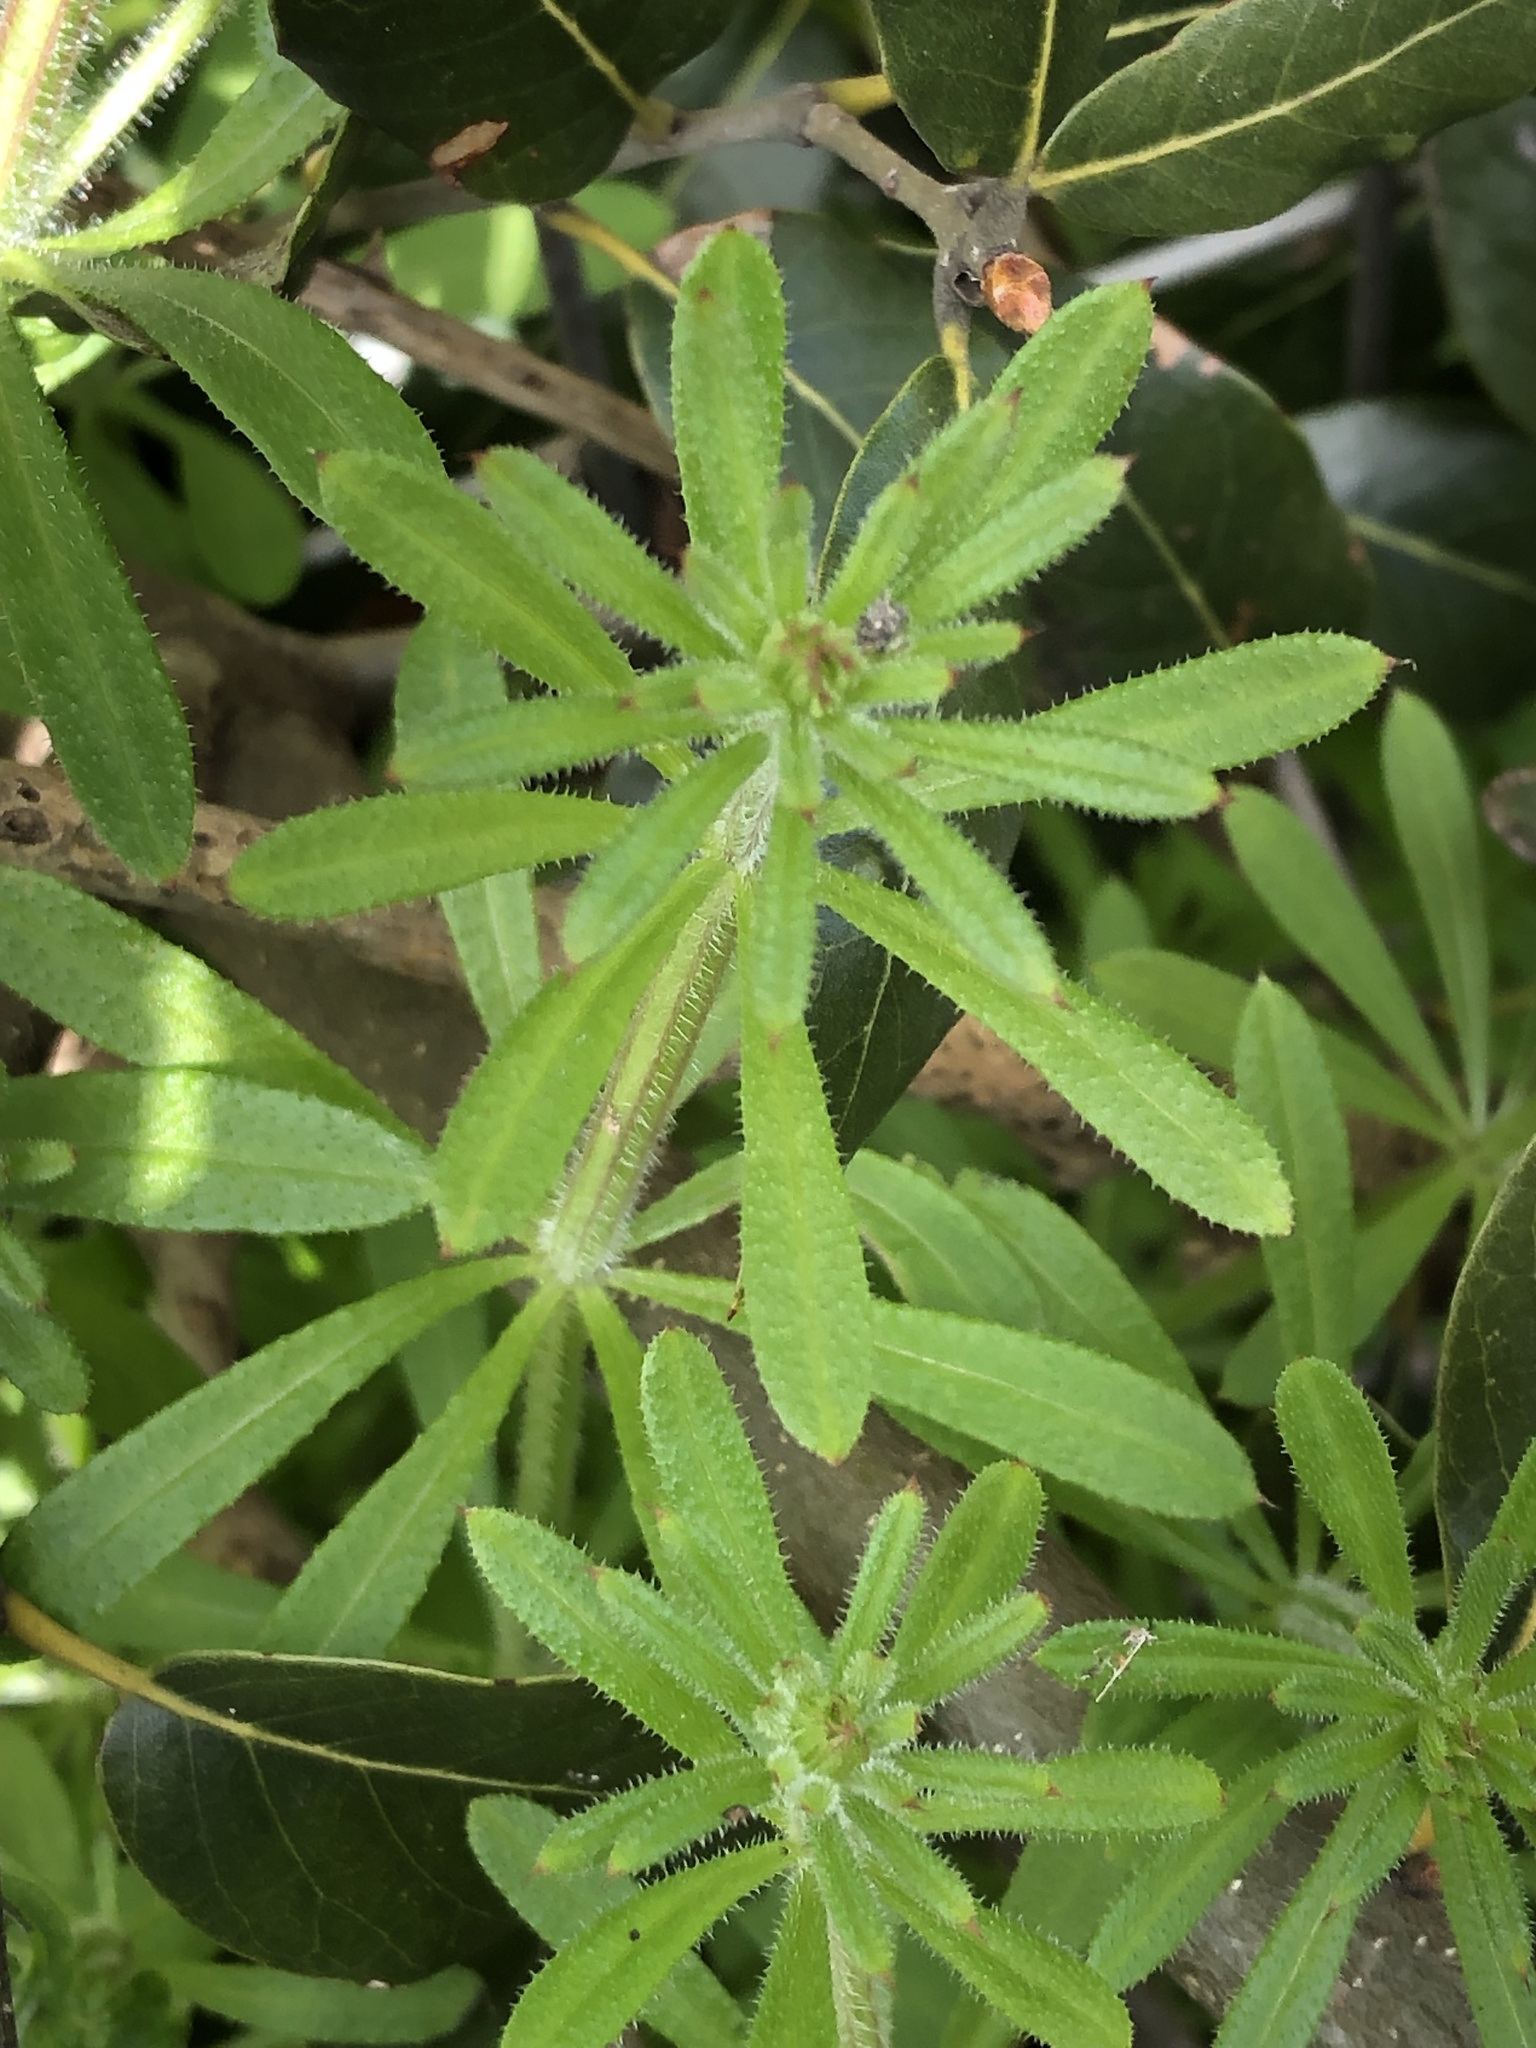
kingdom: Plantae
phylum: Tracheophyta
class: Magnoliopsida
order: Gentianales
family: Rubiaceae
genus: Galium
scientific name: Galium aparine
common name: Cleavers
